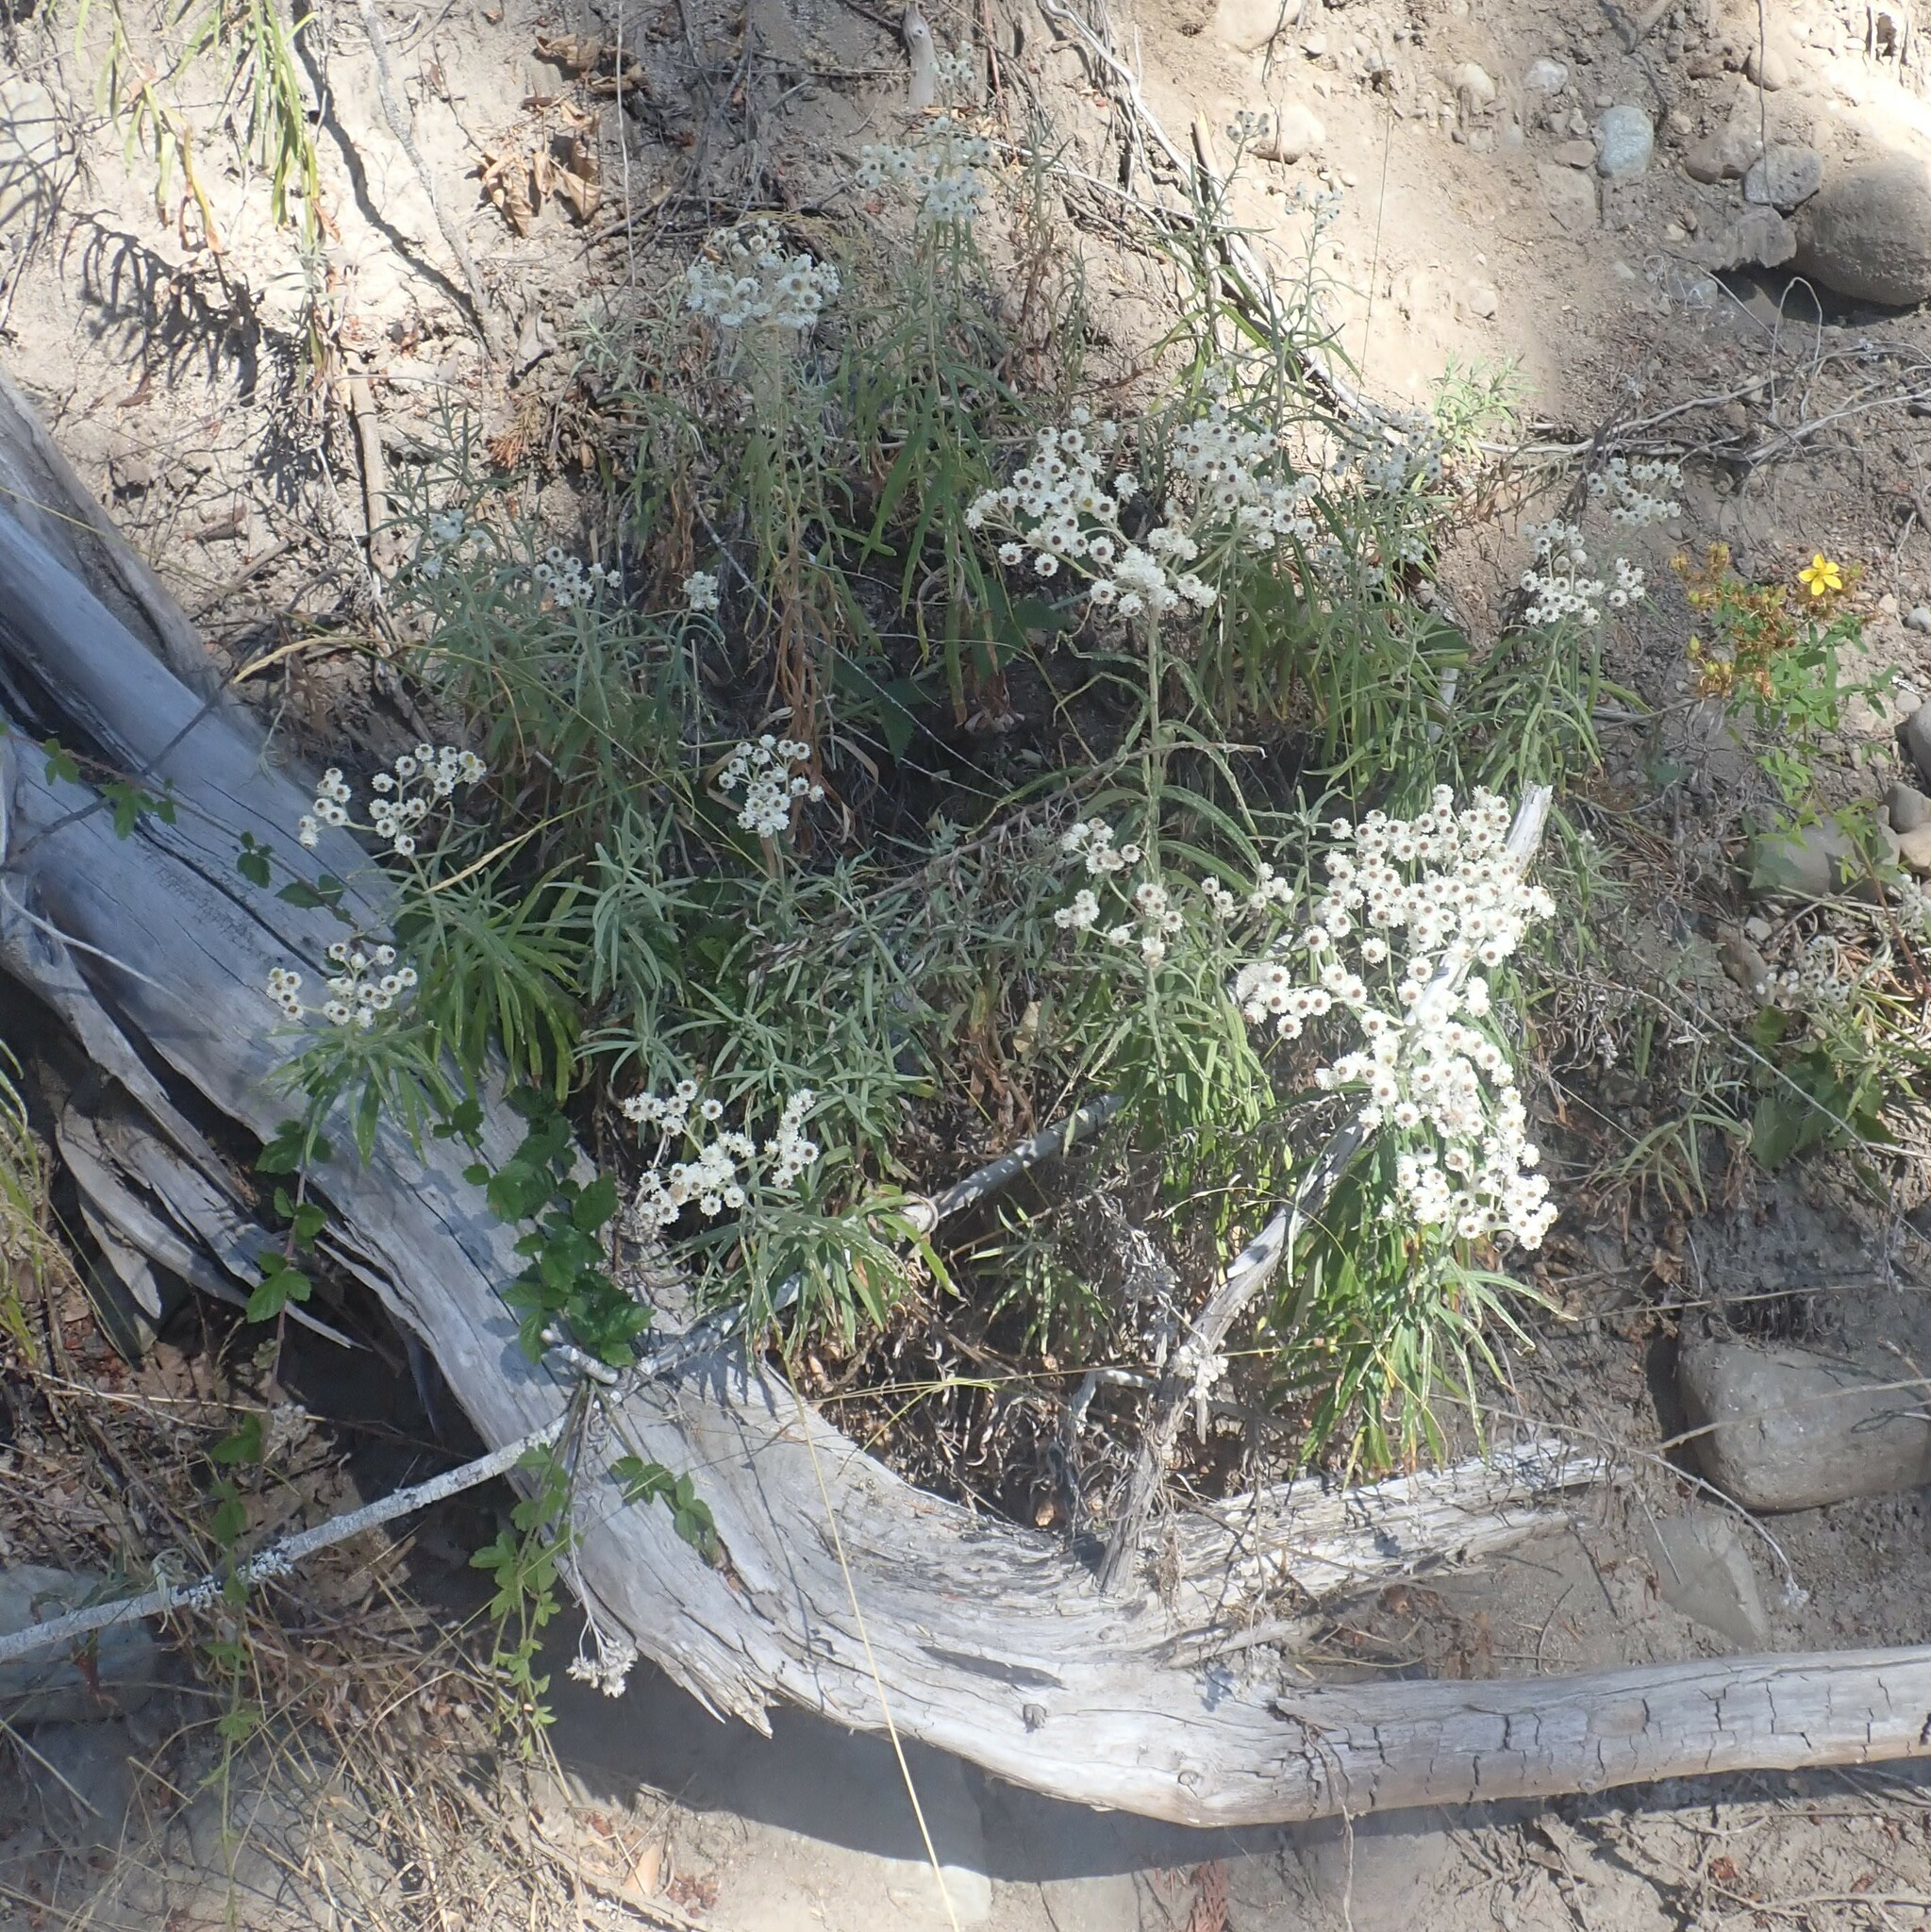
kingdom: Plantae
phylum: Tracheophyta
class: Magnoliopsida
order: Asterales
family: Asteraceae
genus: Anaphalis
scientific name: Anaphalis margaritacea
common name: Pearly everlasting
